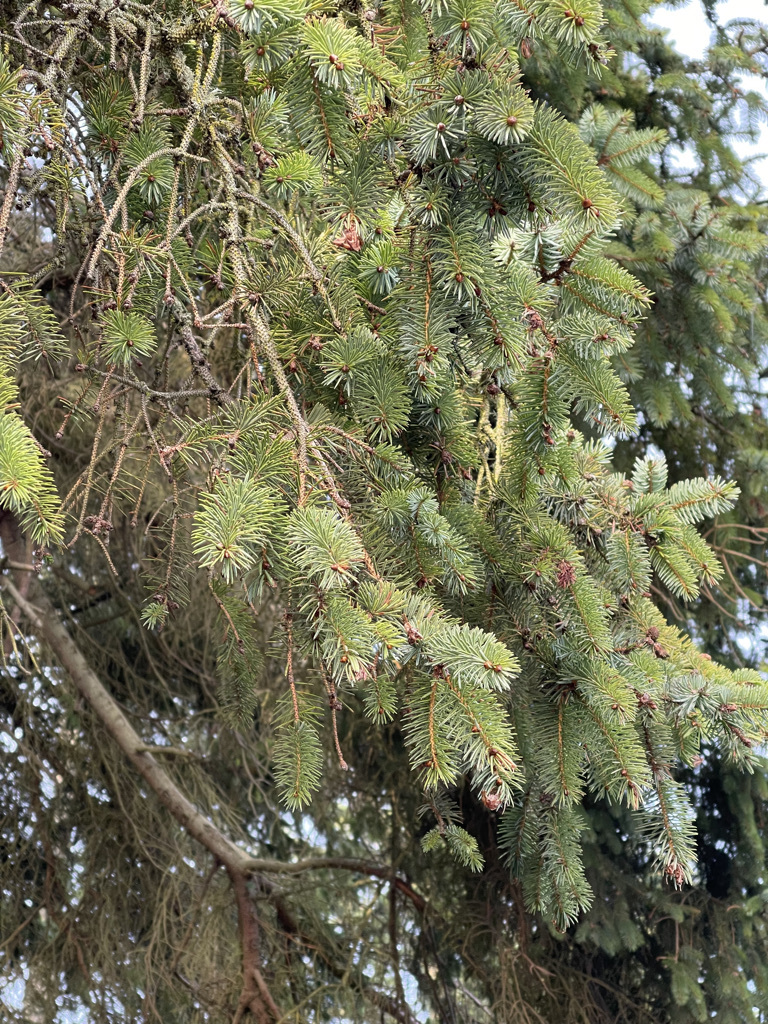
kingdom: Plantae
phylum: Tracheophyta
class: Pinopsida
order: Pinales
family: Pinaceae
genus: Picea
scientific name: Picea sitchensis
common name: Sitka spruce
